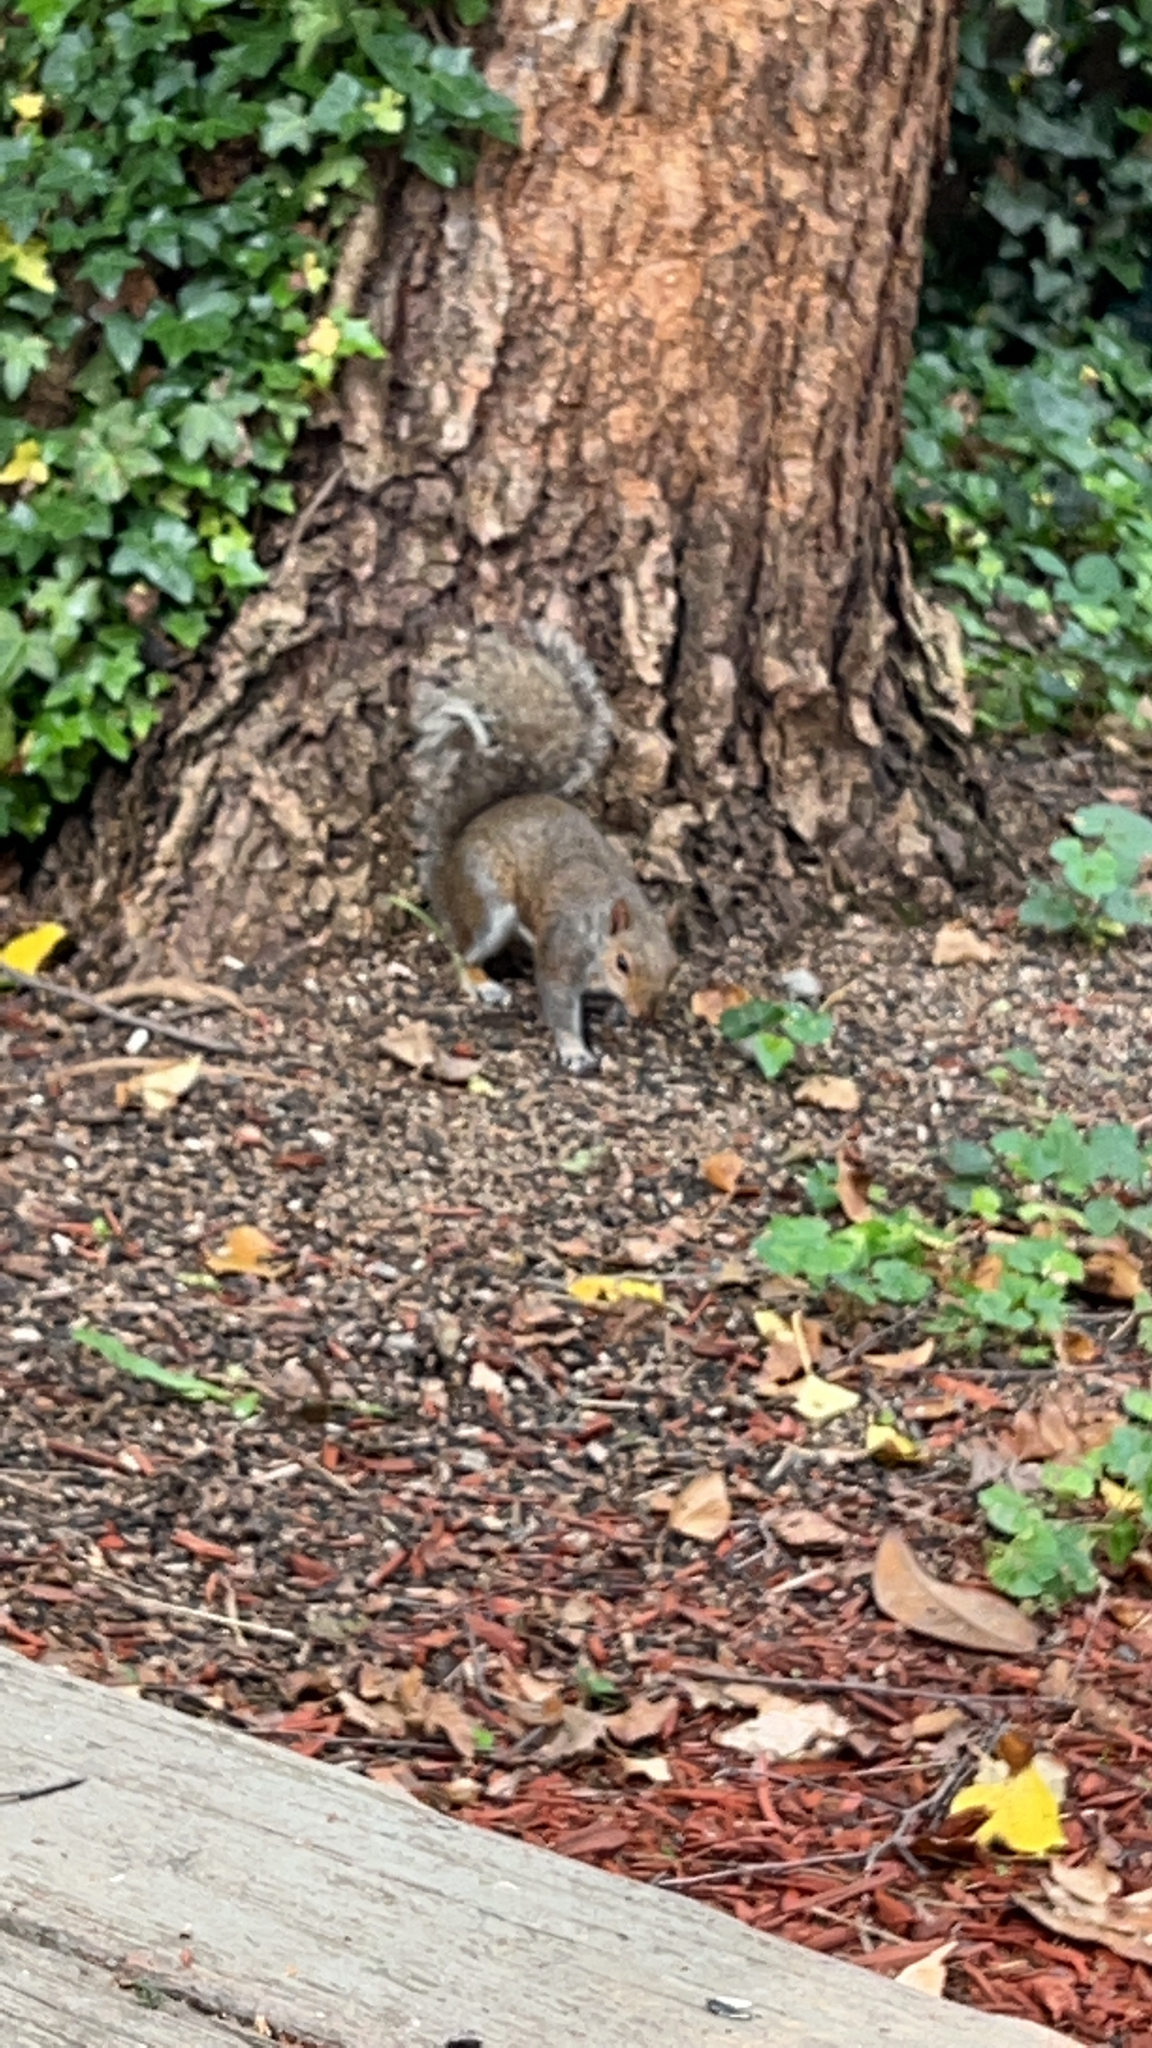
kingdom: Animalia
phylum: Chordata
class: Mammalia
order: Rodentia
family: Sciuridae
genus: Sciurus
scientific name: Sciurus carolinensis
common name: Eastern gray squirrel
